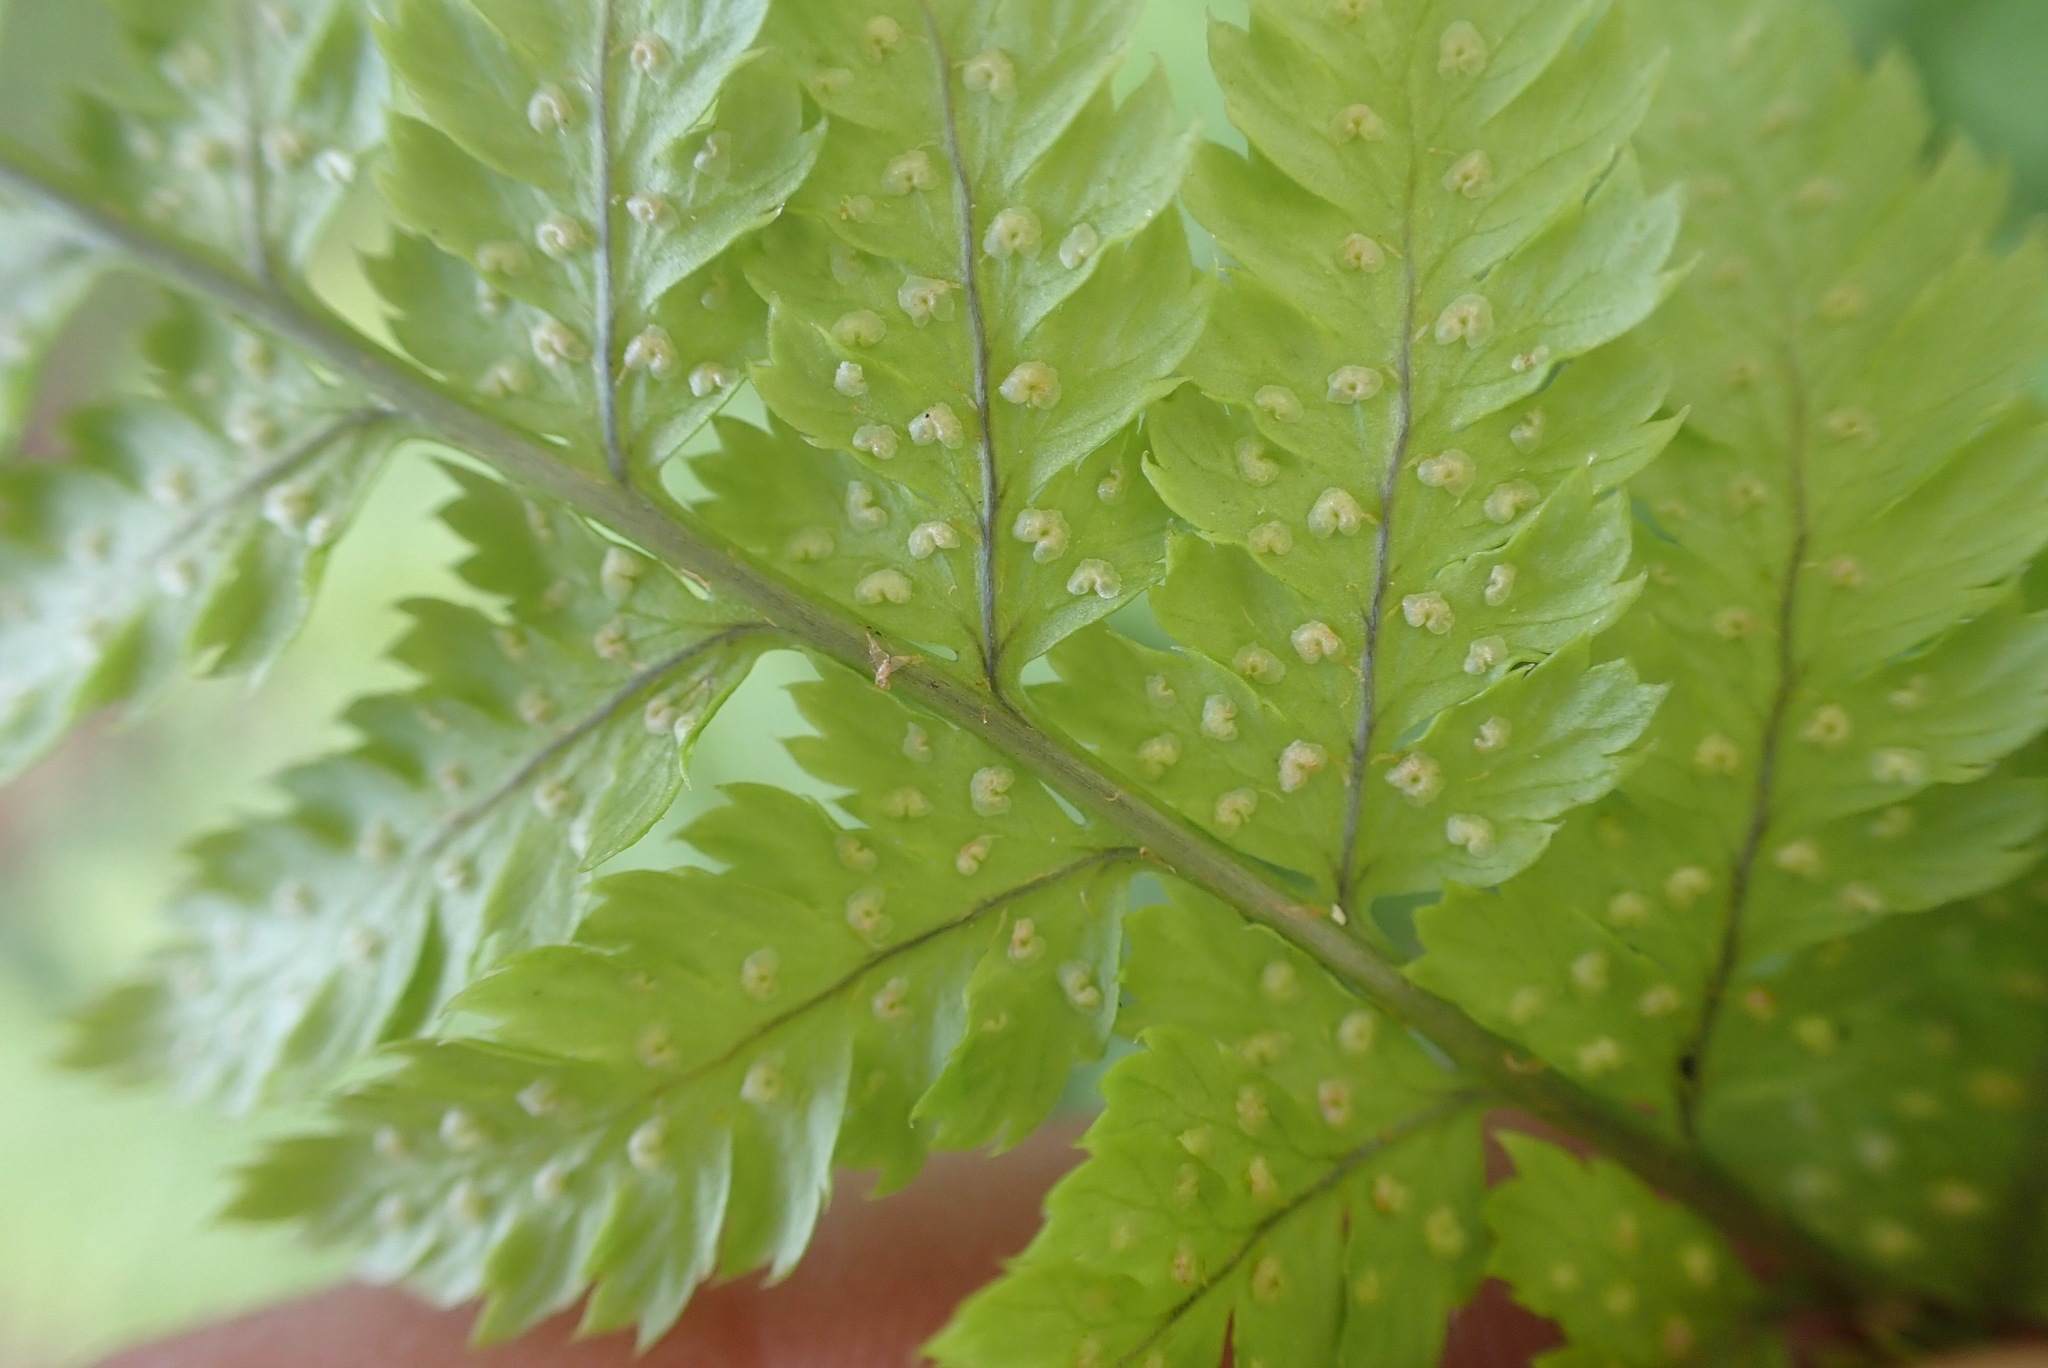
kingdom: Plantae
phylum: Tracheophyta
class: Polypodiopsida
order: Polypodiales
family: Dryopteridaceae
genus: Dryopteris
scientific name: Dryopteris dilatata
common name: Broad buckler-fern
